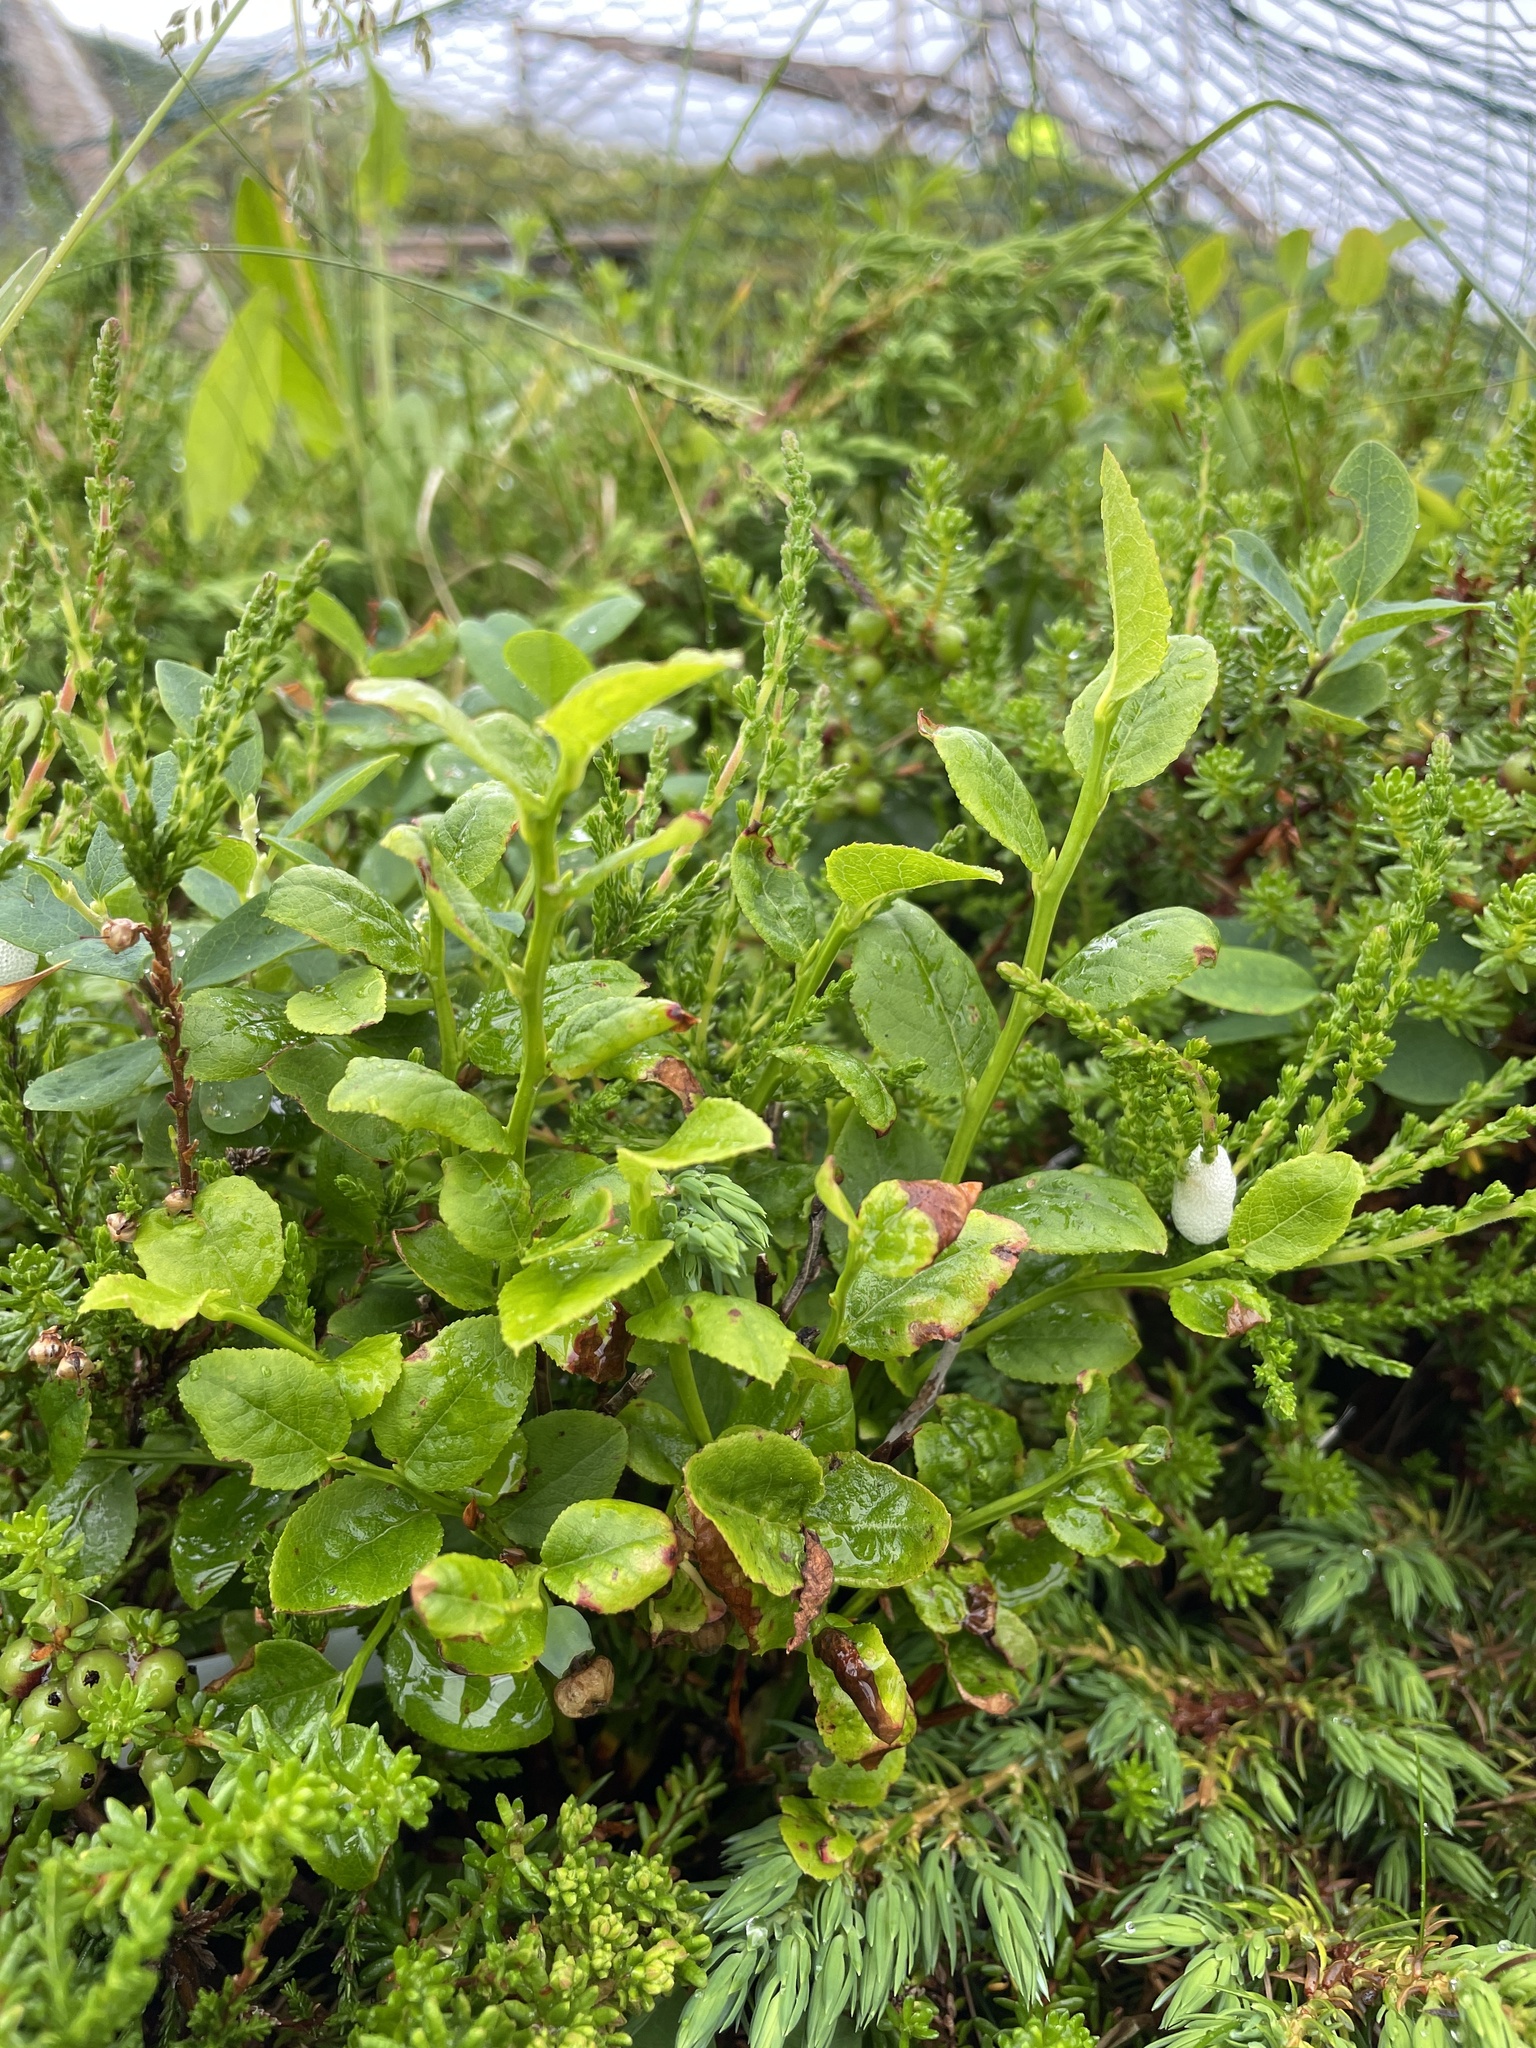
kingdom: Plantae
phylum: Tracheophyta
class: Magnoliopsida
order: Ericales
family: Ericaceae
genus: Vaccinium
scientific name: Vaccinium myrtillus
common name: Bilberry
